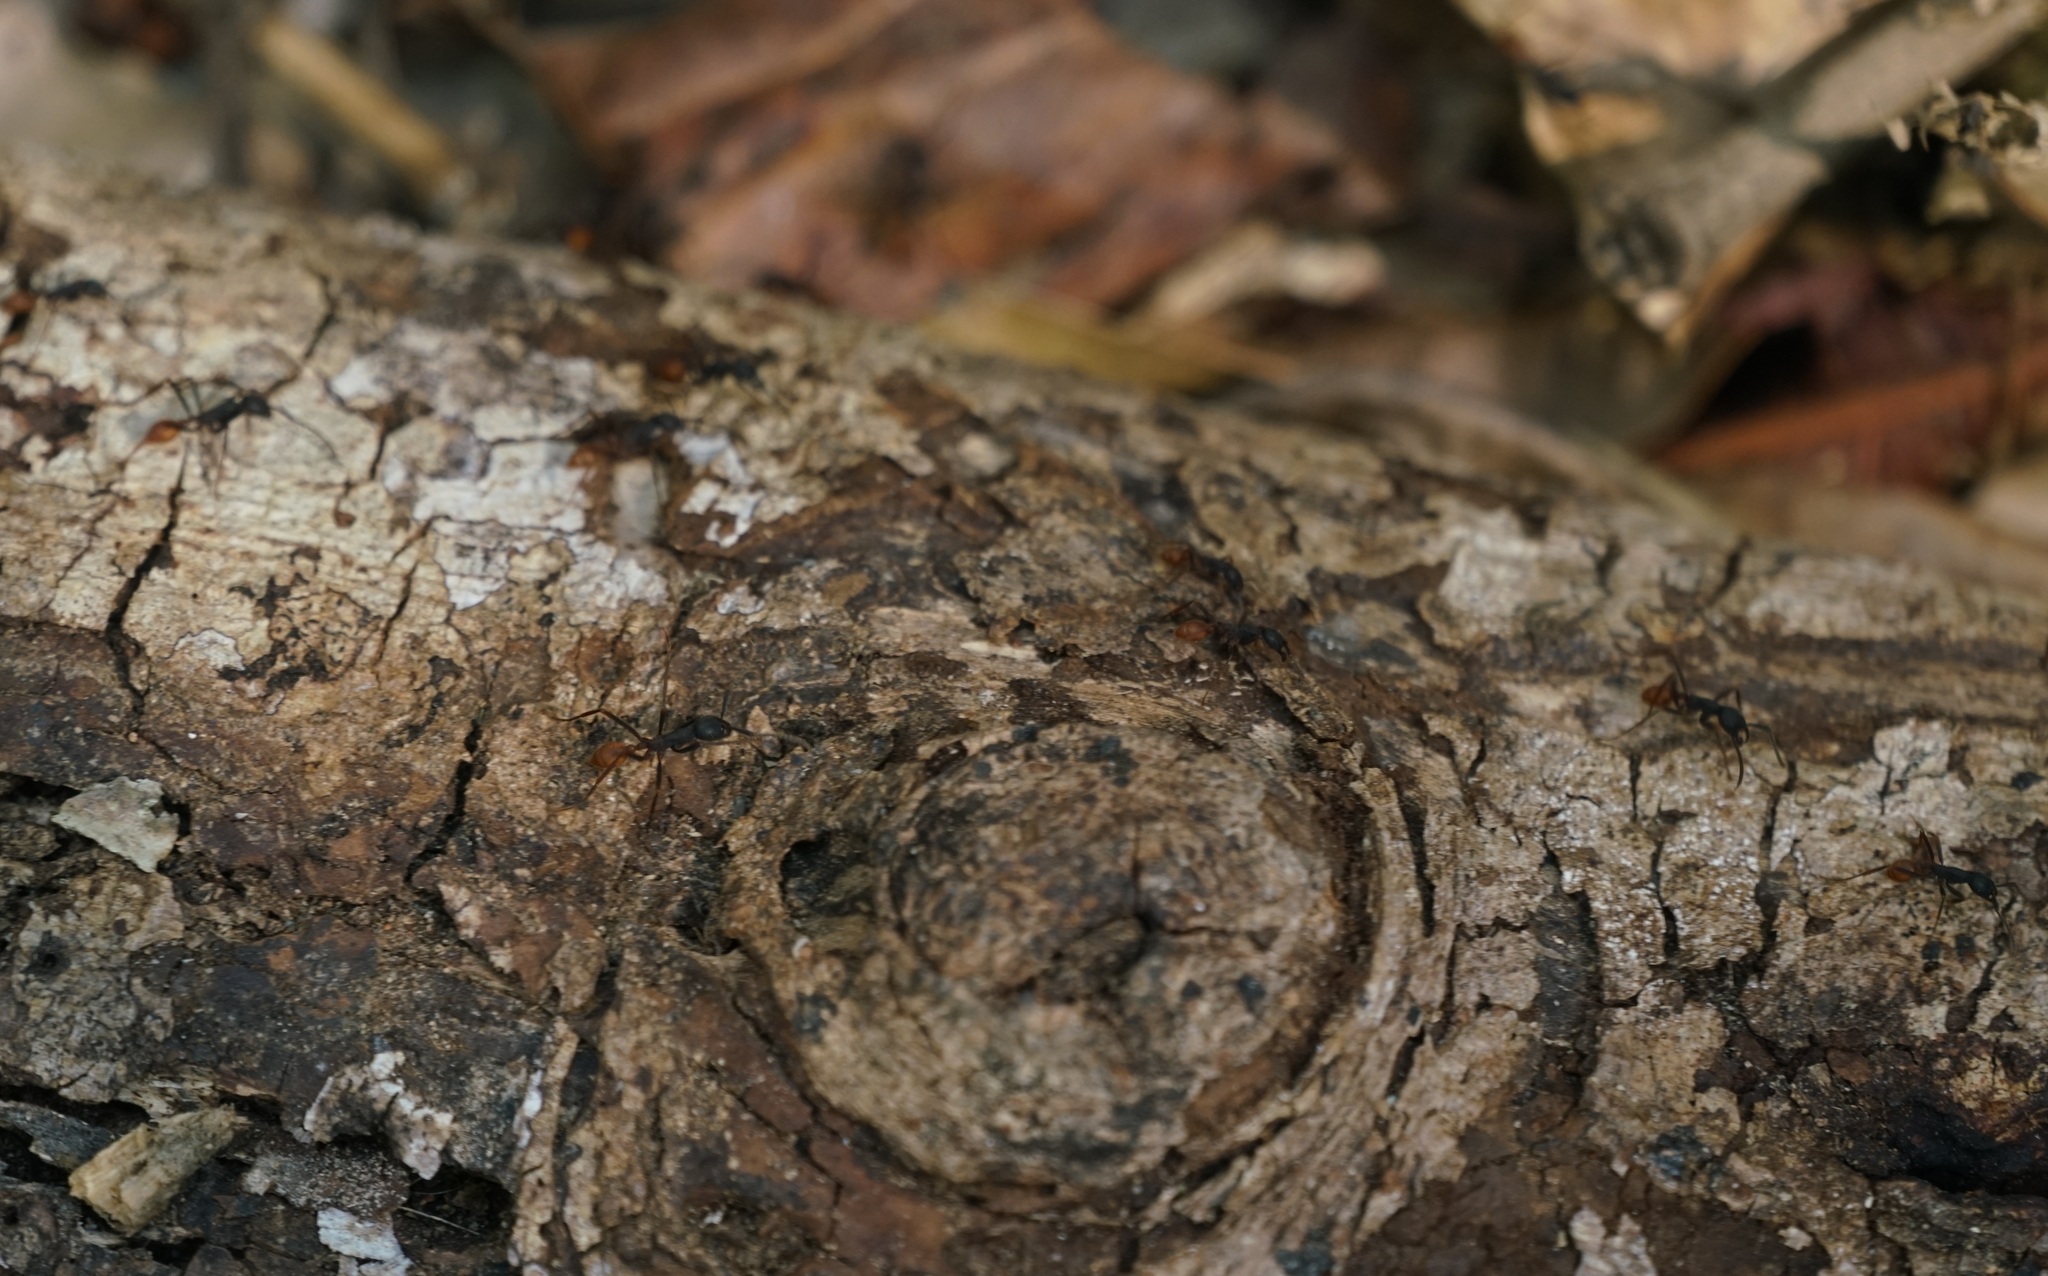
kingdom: Animalia
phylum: Arthropoda
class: Insecta
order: Hymenoptera
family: Formicidae
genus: Eciton
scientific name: Eciton burchellii
